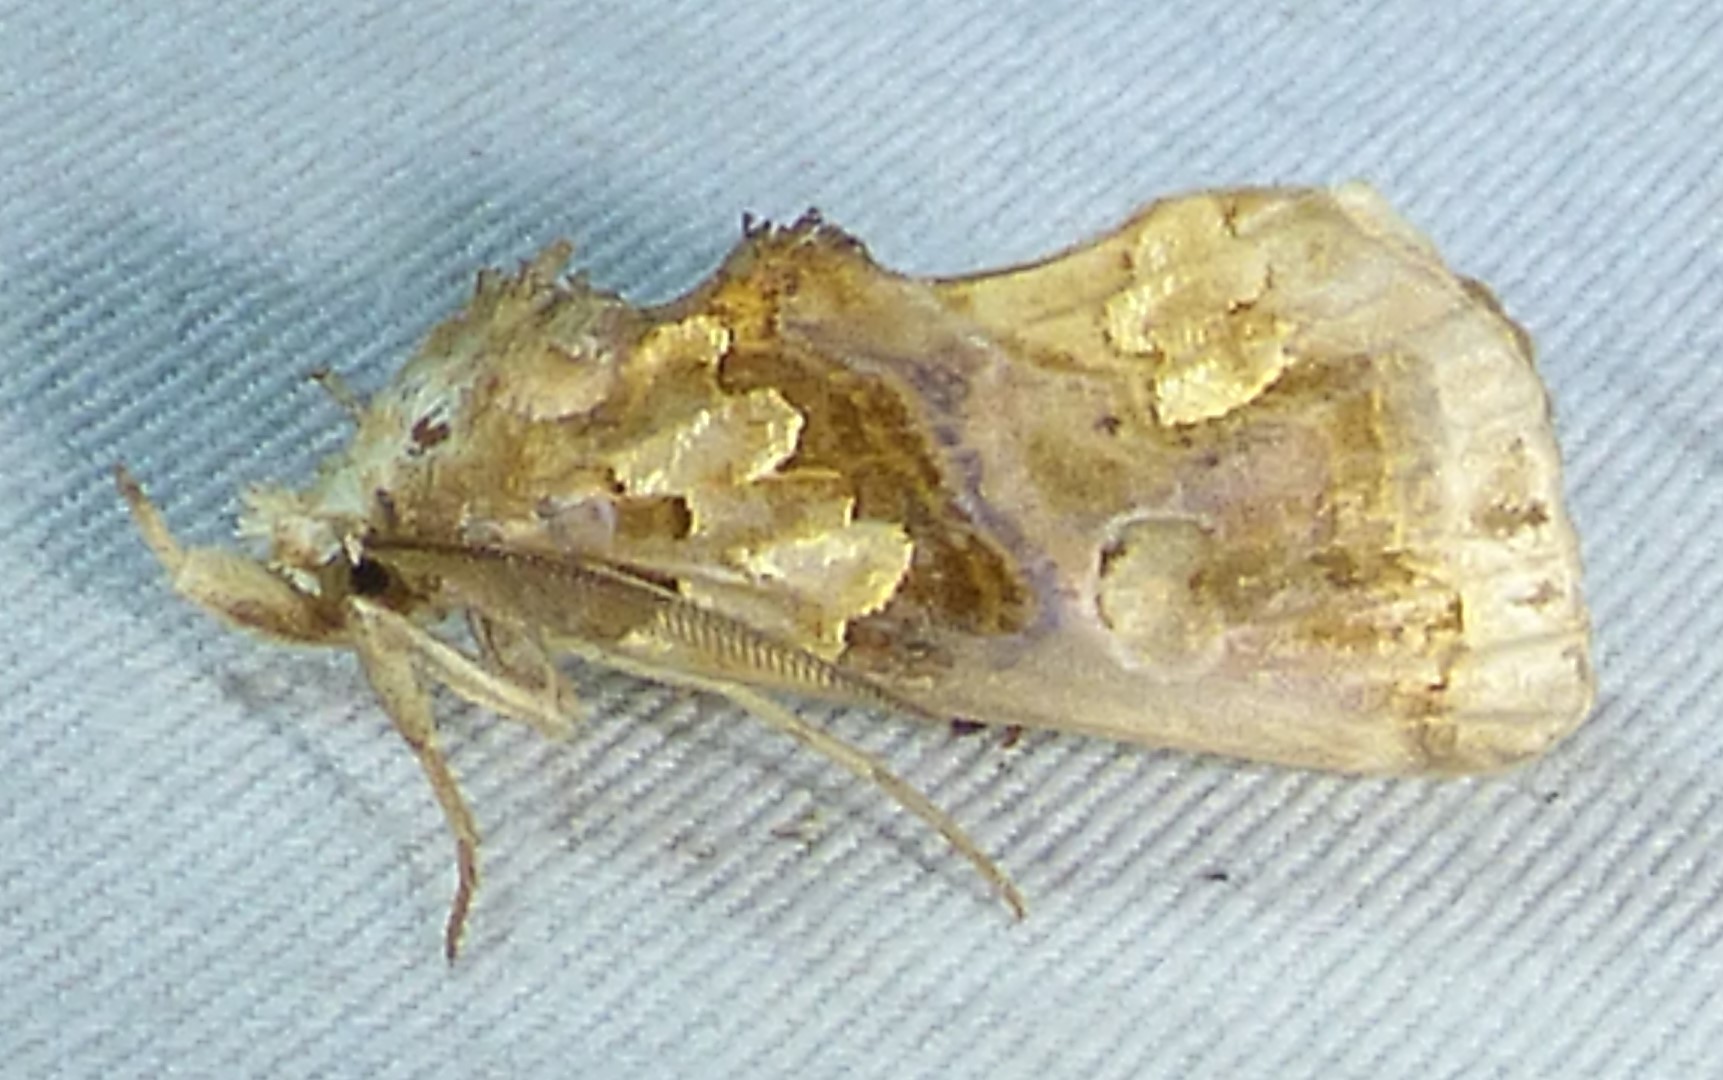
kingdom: Animalia
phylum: Arthropoda
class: Insecta
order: Lepidoptera
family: Erebidae
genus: Plusiodonta
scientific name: Plusiodonta compressipalpis
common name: Moonseed moth
